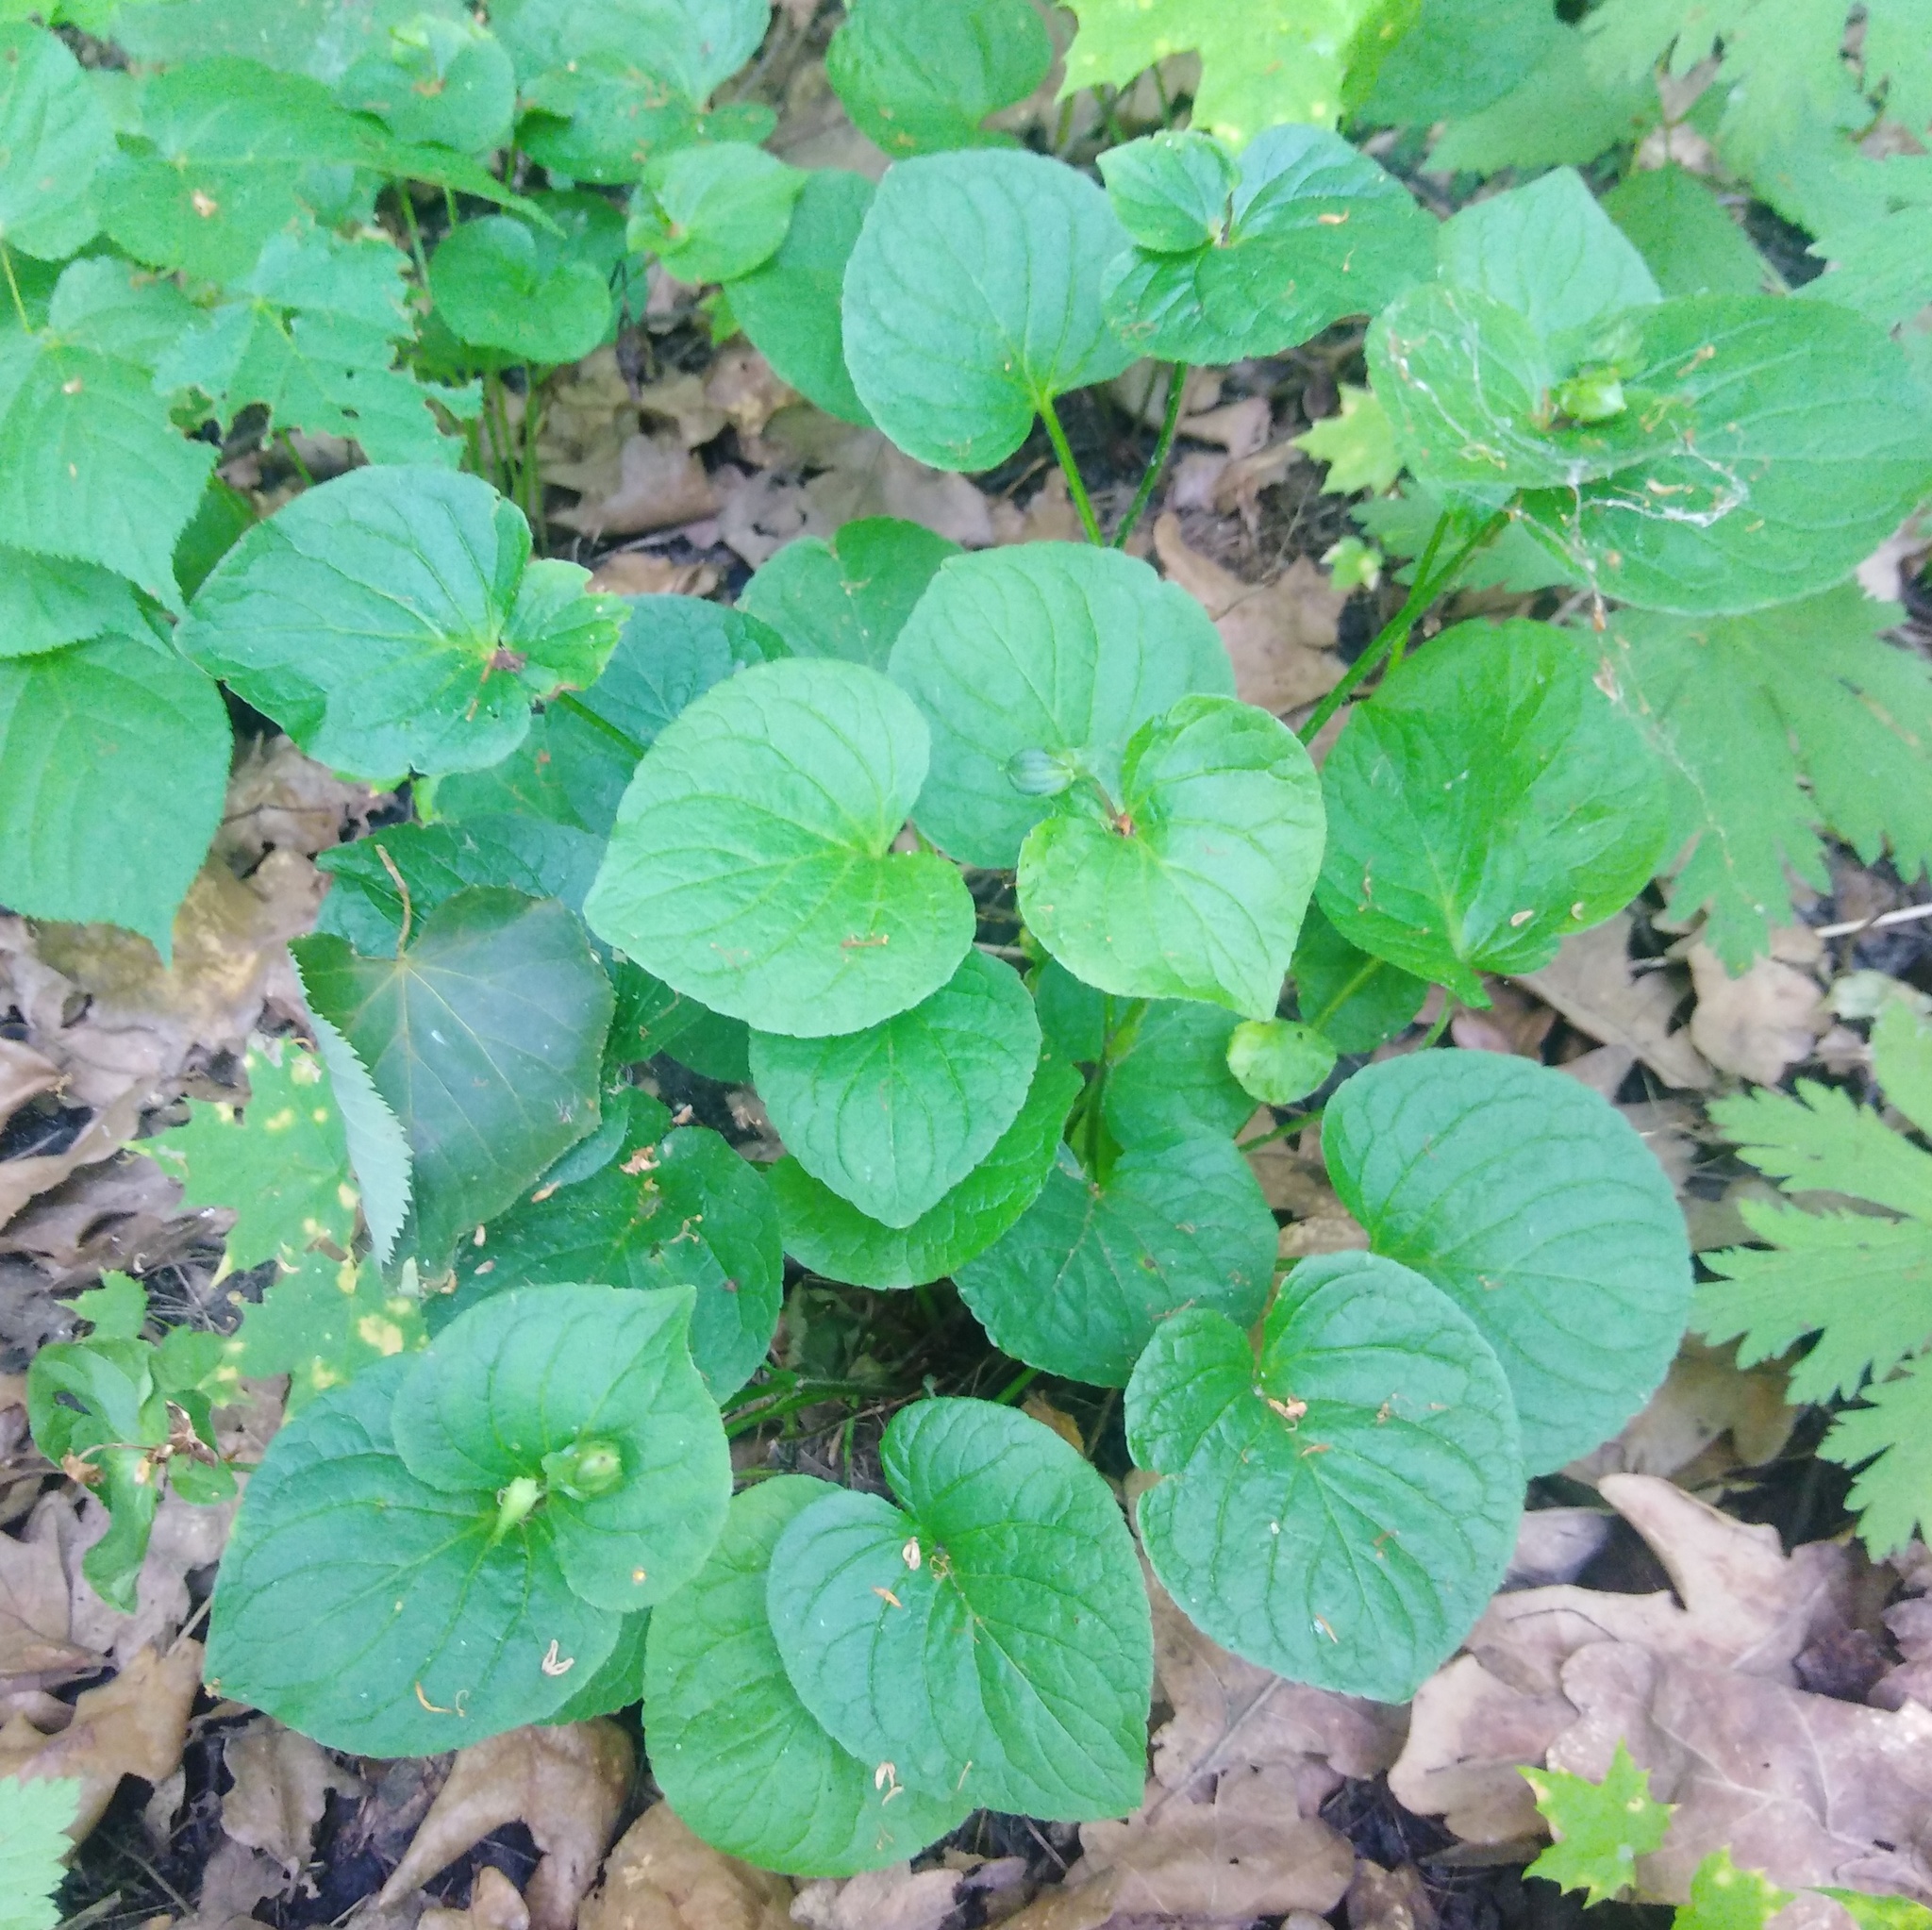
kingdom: Plantae
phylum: Tracheophyta
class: Magnoliopsida
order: Malpighiales
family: Violaceae
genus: Viola
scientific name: Viola mirabilis
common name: Wonder violet
